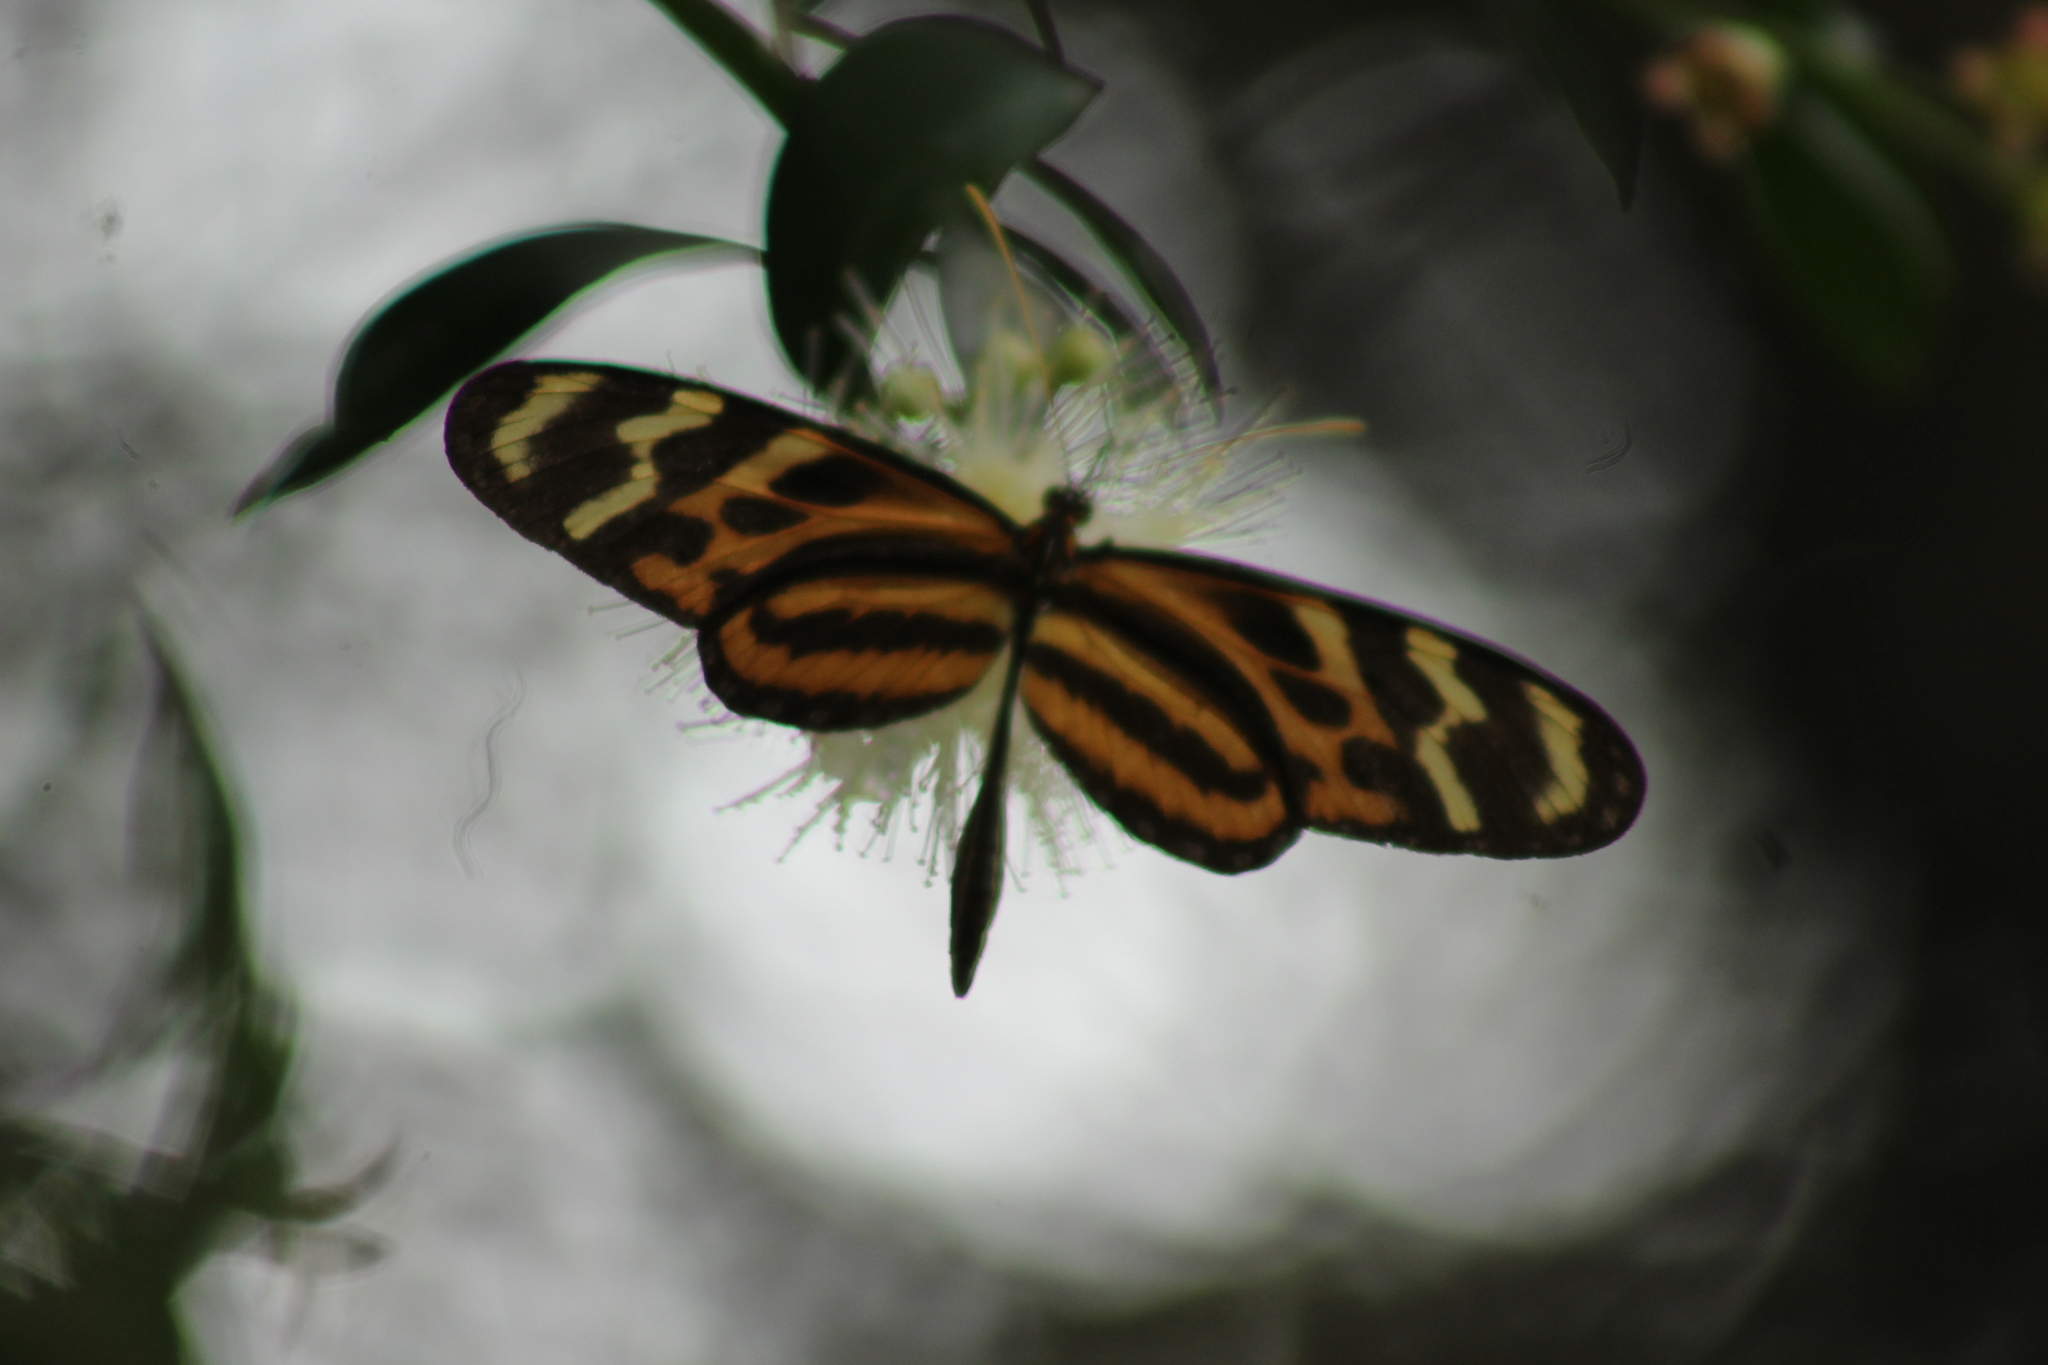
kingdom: Animalia
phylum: Arthropoda
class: Insecta
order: Lepidoptera
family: Nymphalidae
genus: Mechanitis
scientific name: Mechanitis menapis
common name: Menapis tigerwing
